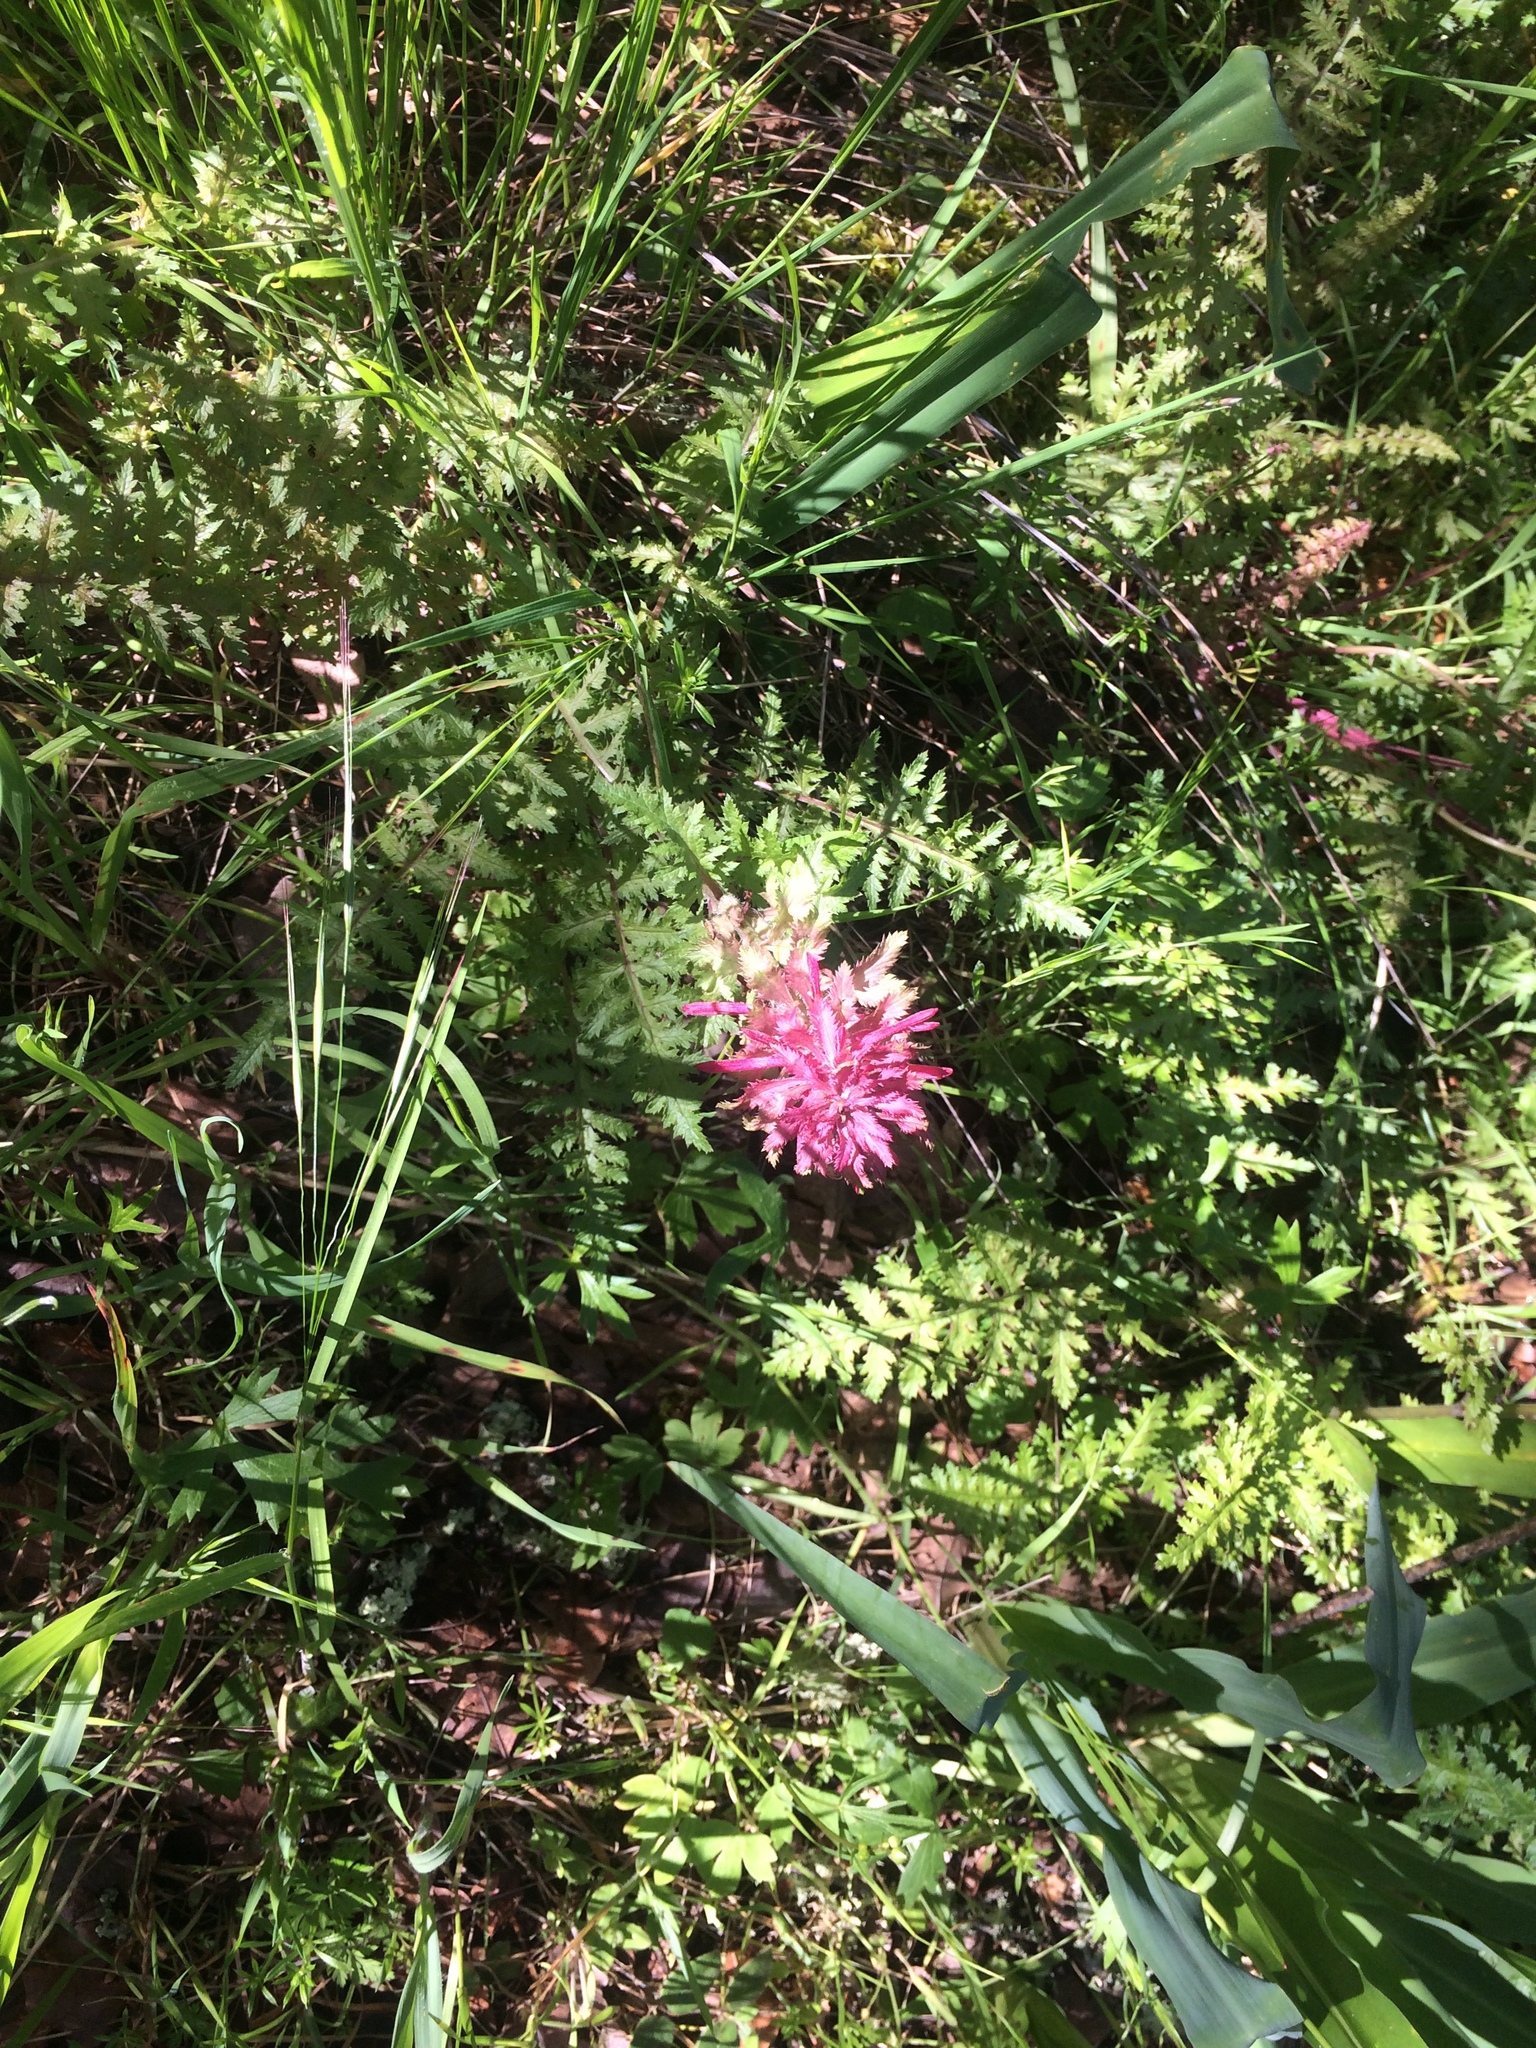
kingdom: Plantae
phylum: Tracheophyta
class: Magnoliopsida
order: Lamiales
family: Orobanchaceae
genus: Pedicularis
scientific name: Pedicularis densiflora
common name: Indian warrior
